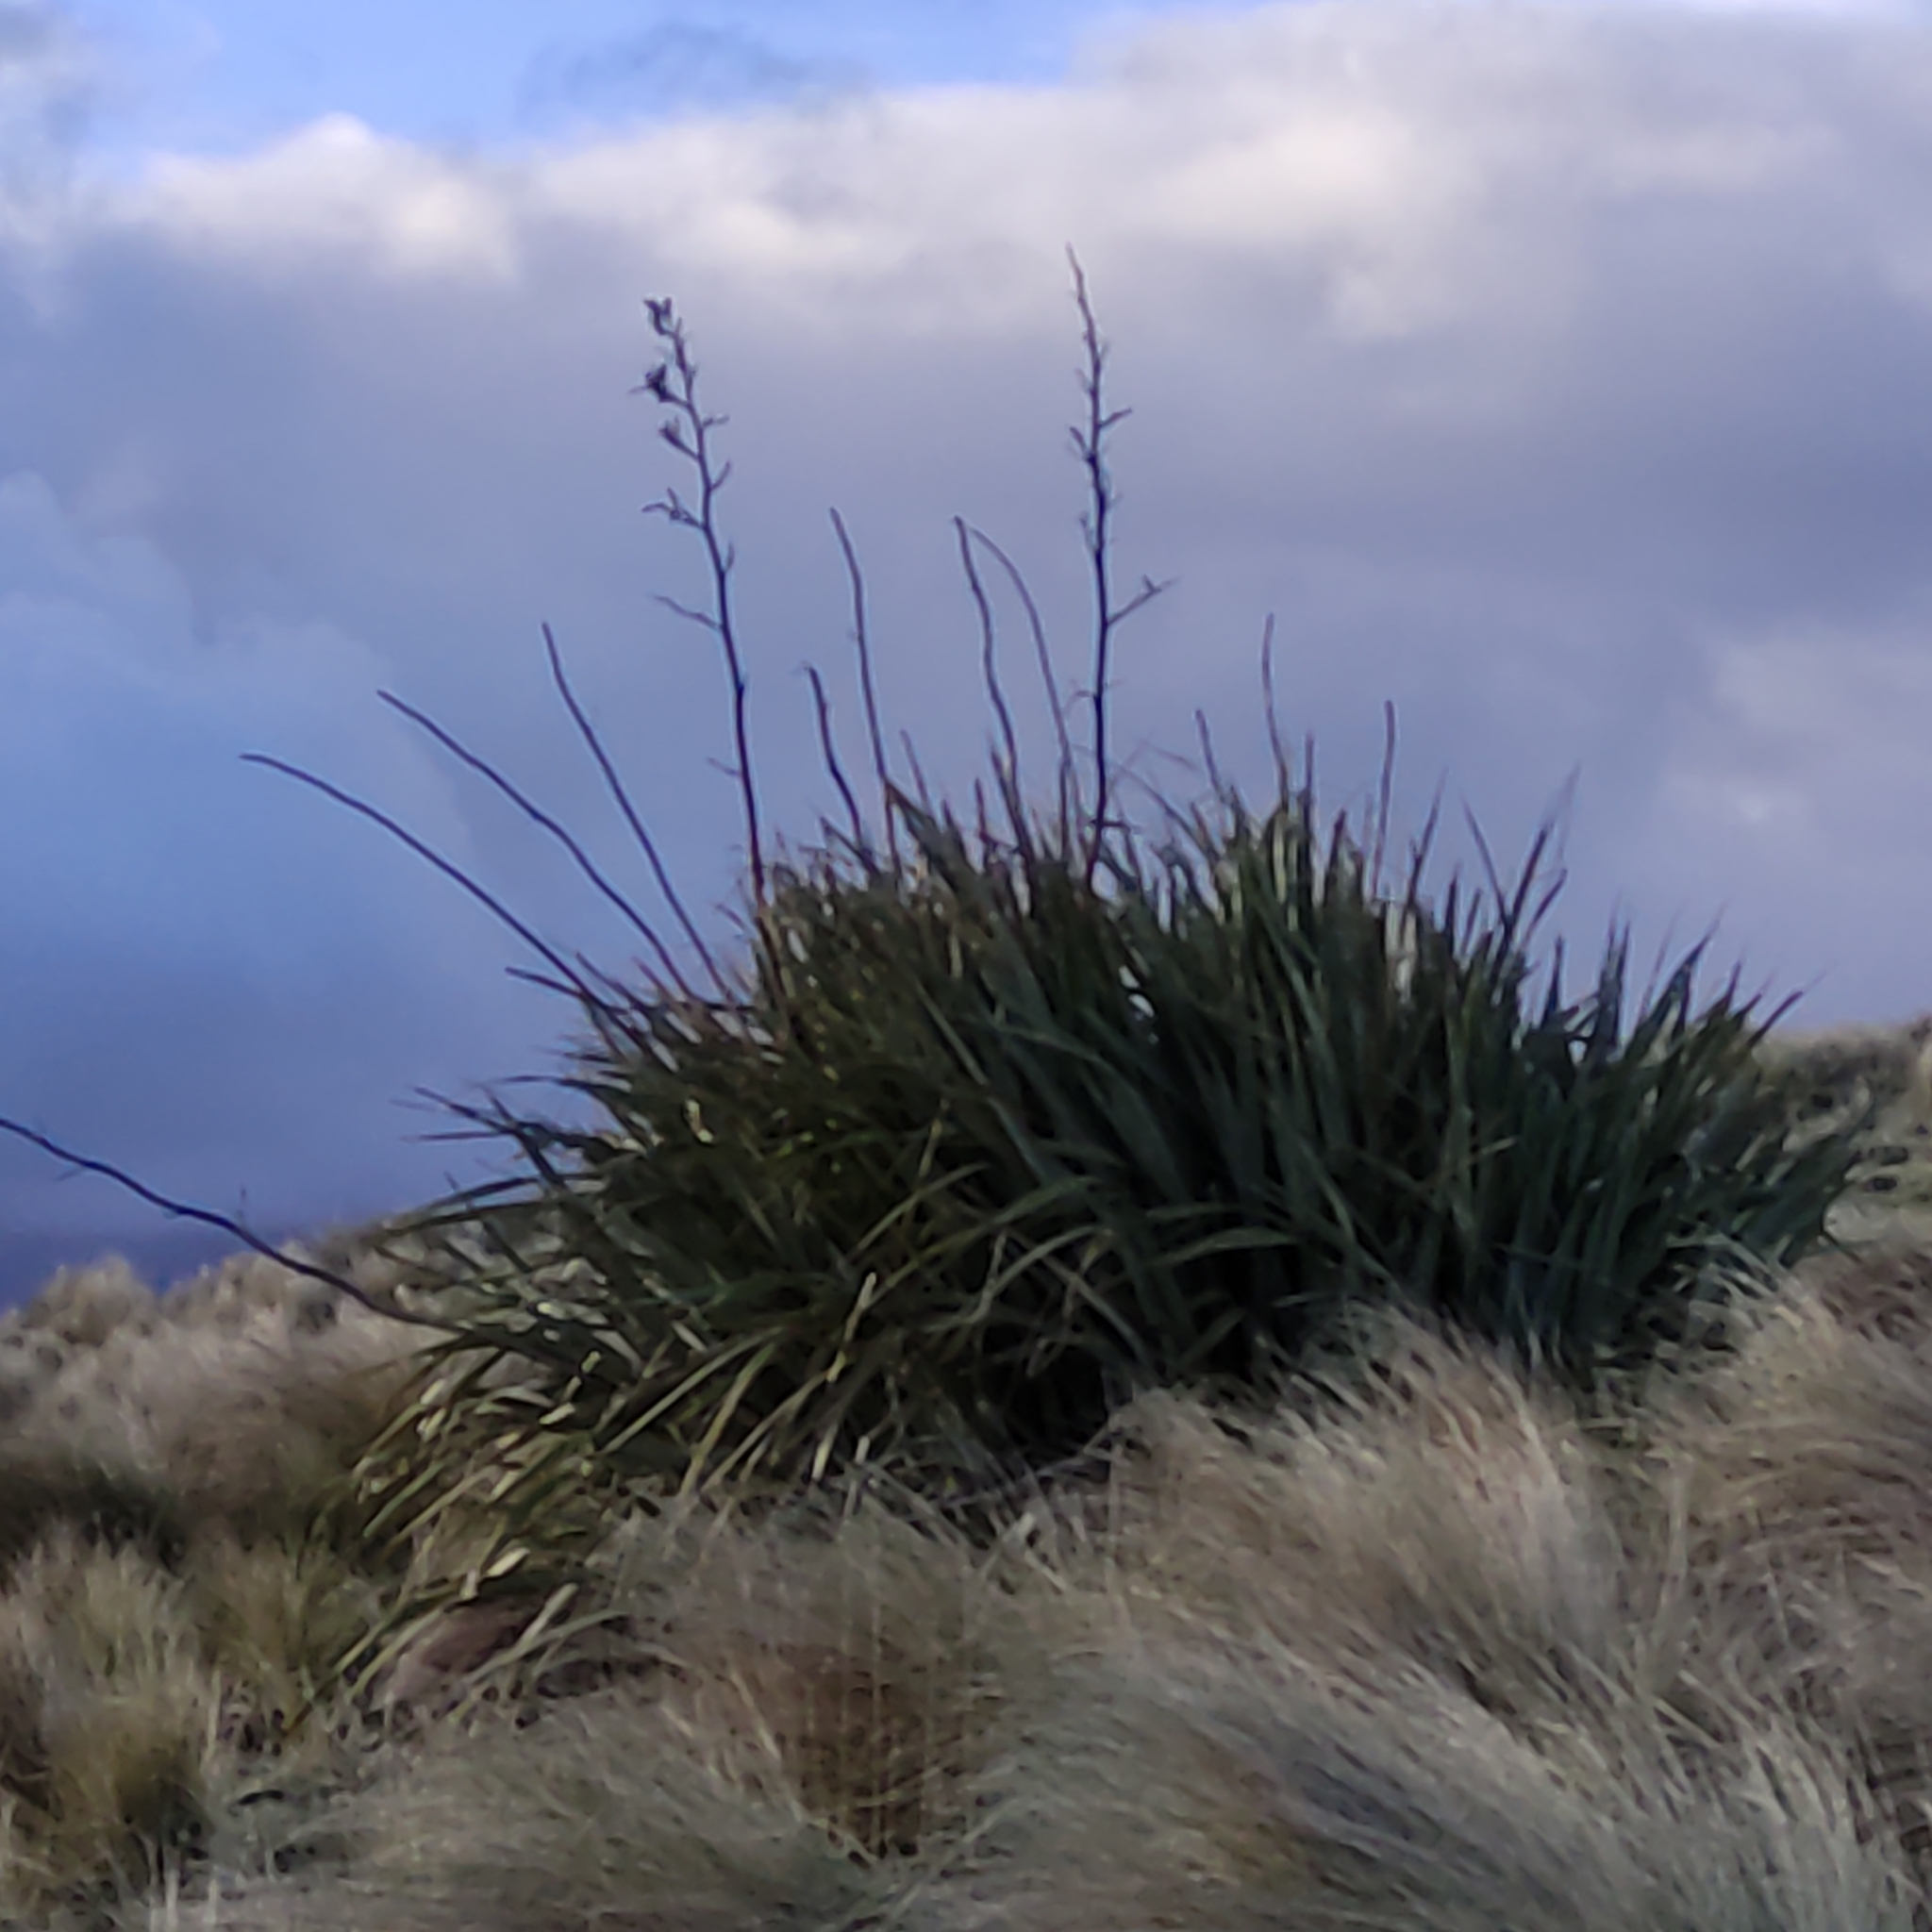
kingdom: Plantae
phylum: Tracheophyta
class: Liliopsida
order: Asparagales
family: Asphodelaceae
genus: Phormium
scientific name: Phormium tenax
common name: New zealand flax
